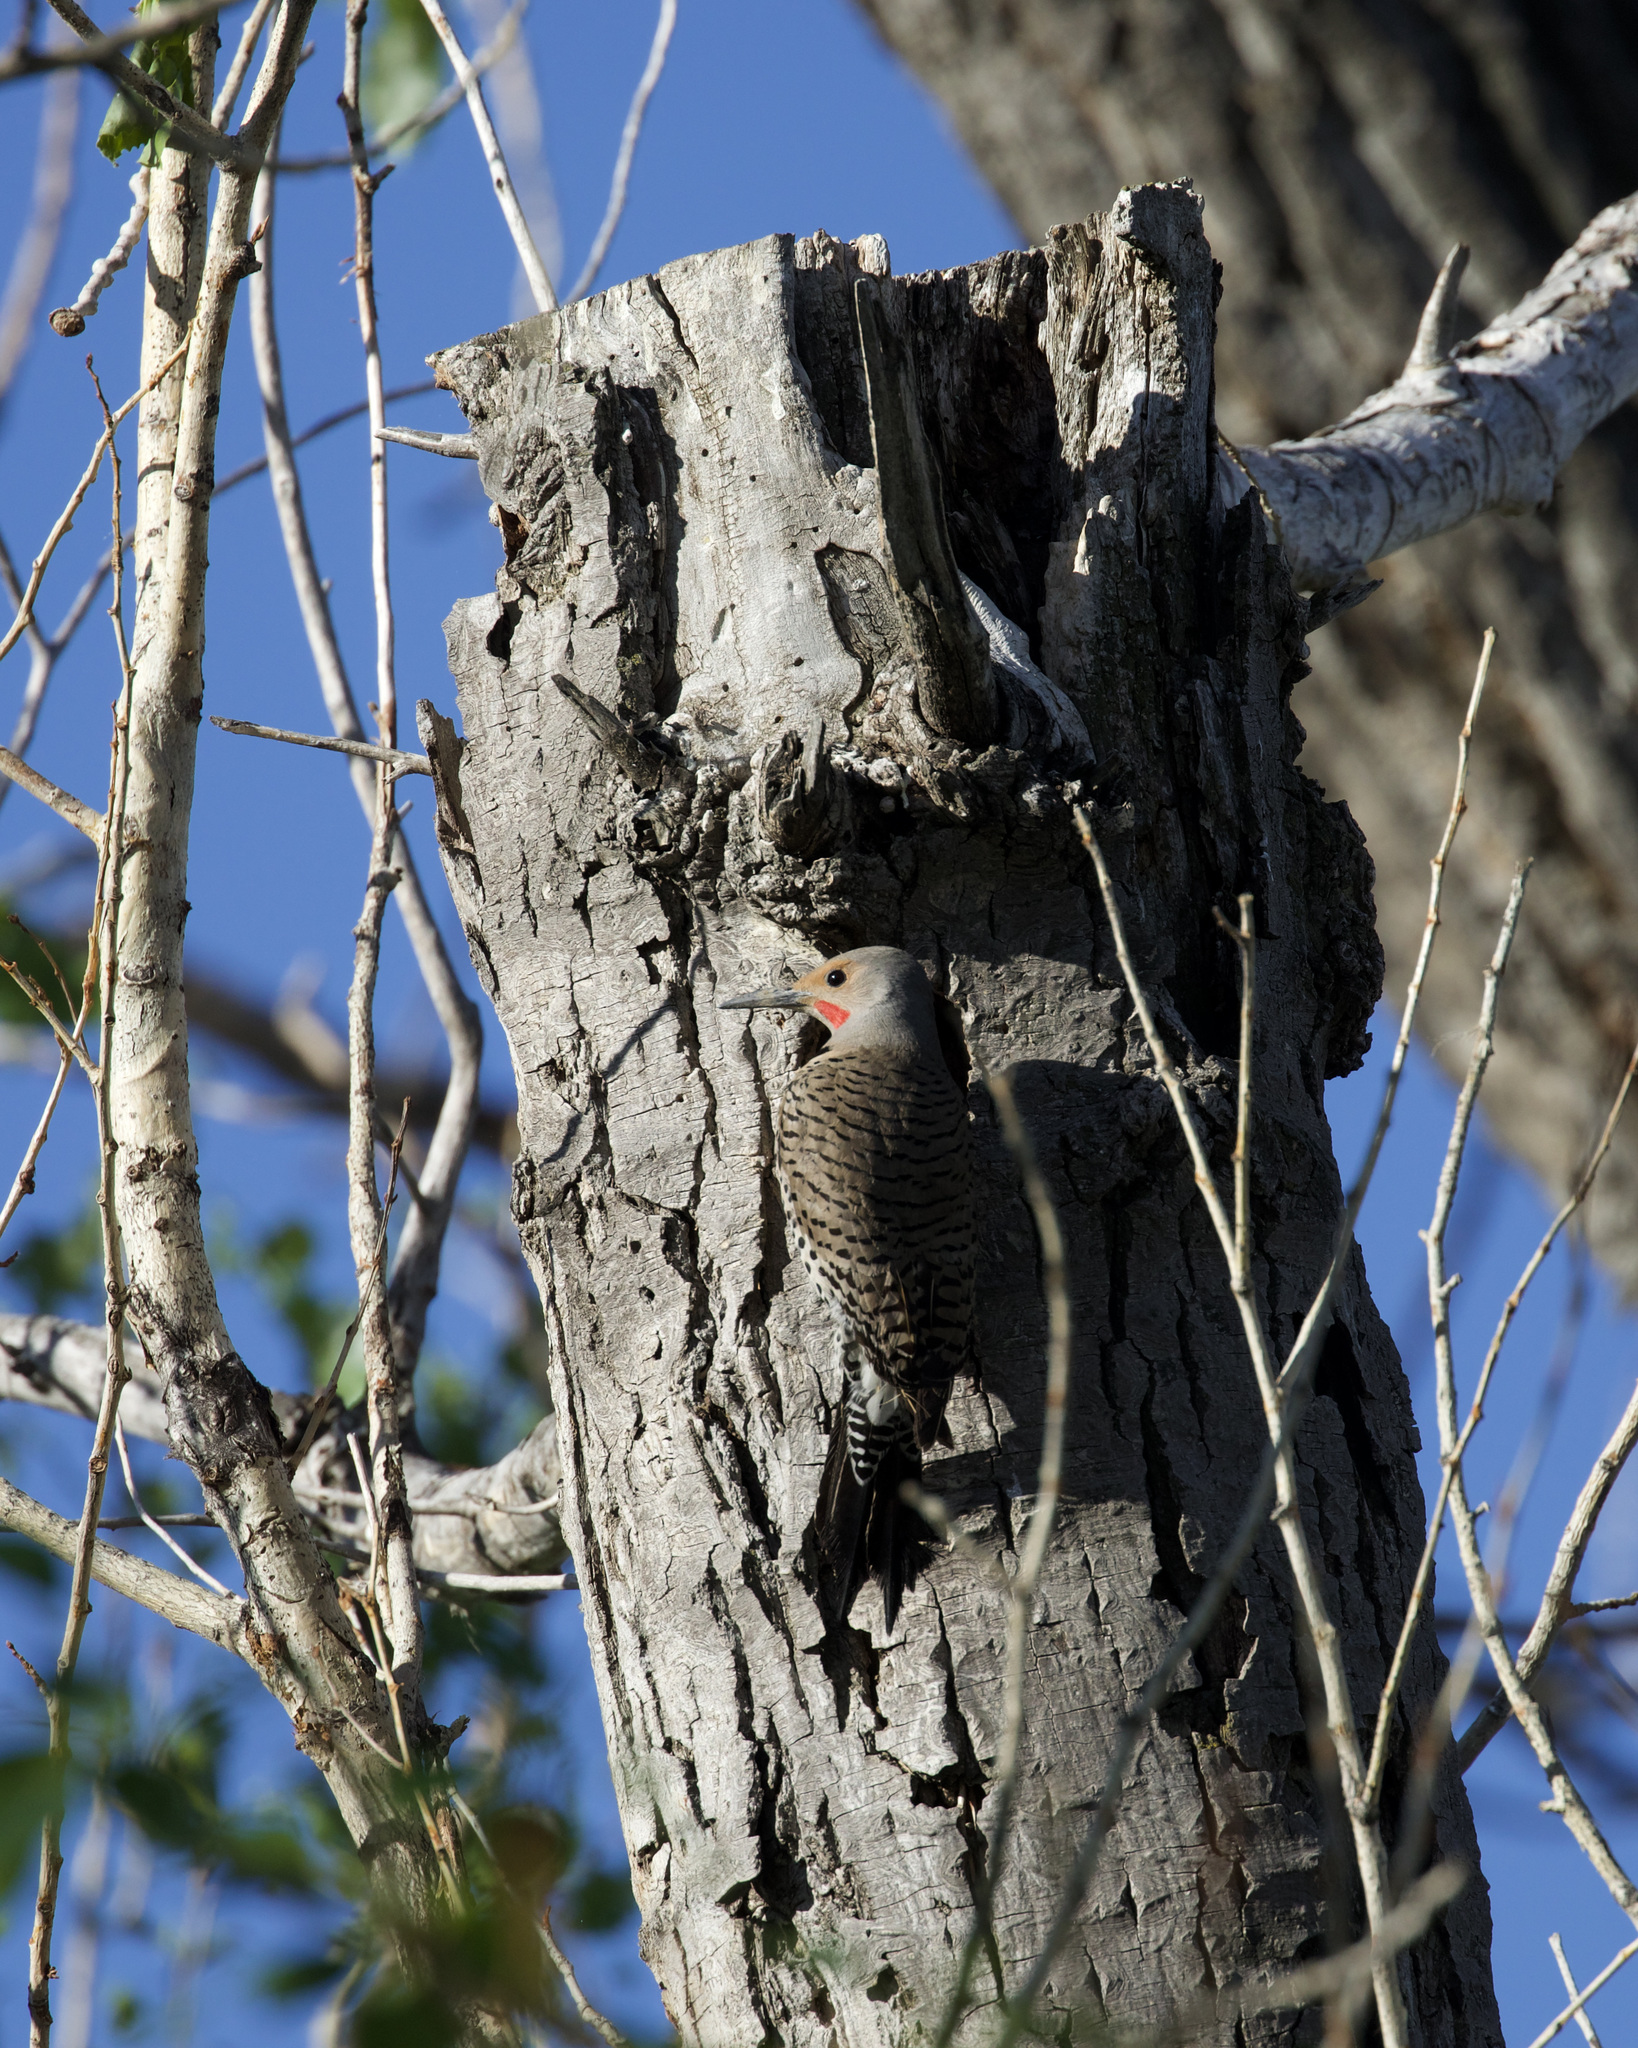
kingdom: Animalia
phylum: Chordata
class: Aves
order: Piciformes
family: Picidae
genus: Colaptes
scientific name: Colaptes auratus
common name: Northern flicker
